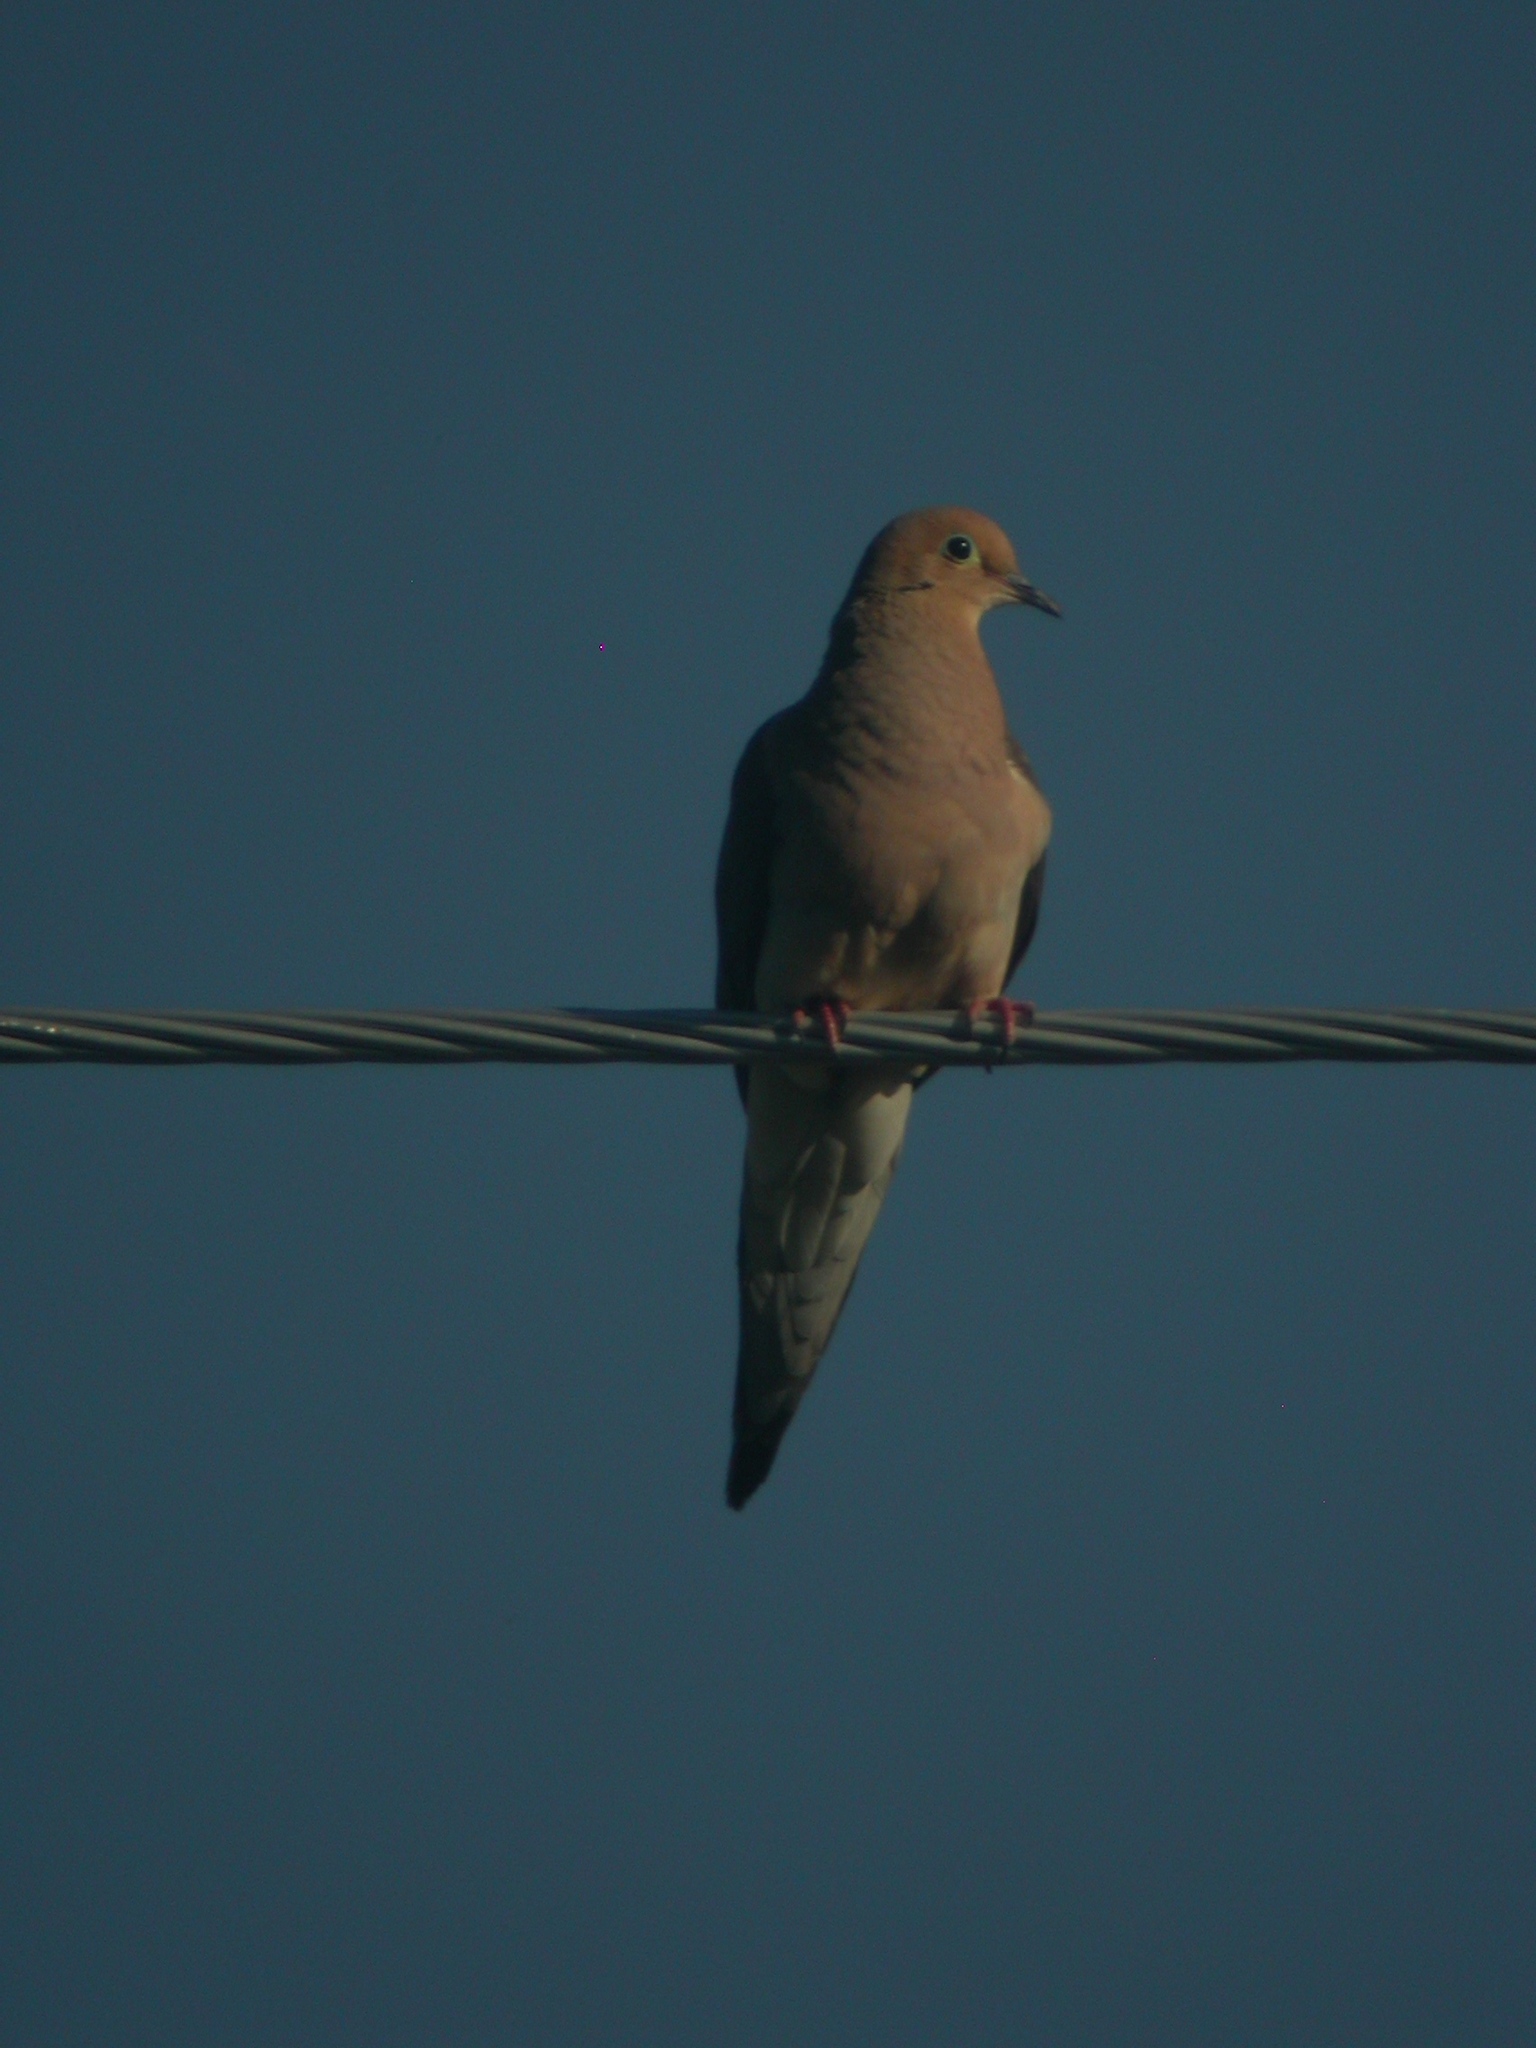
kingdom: Animalia
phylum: Chordata
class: Aves
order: Columbiformes
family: Columbidae
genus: Zenaida
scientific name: Zenaida macroura
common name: Mourning dove
